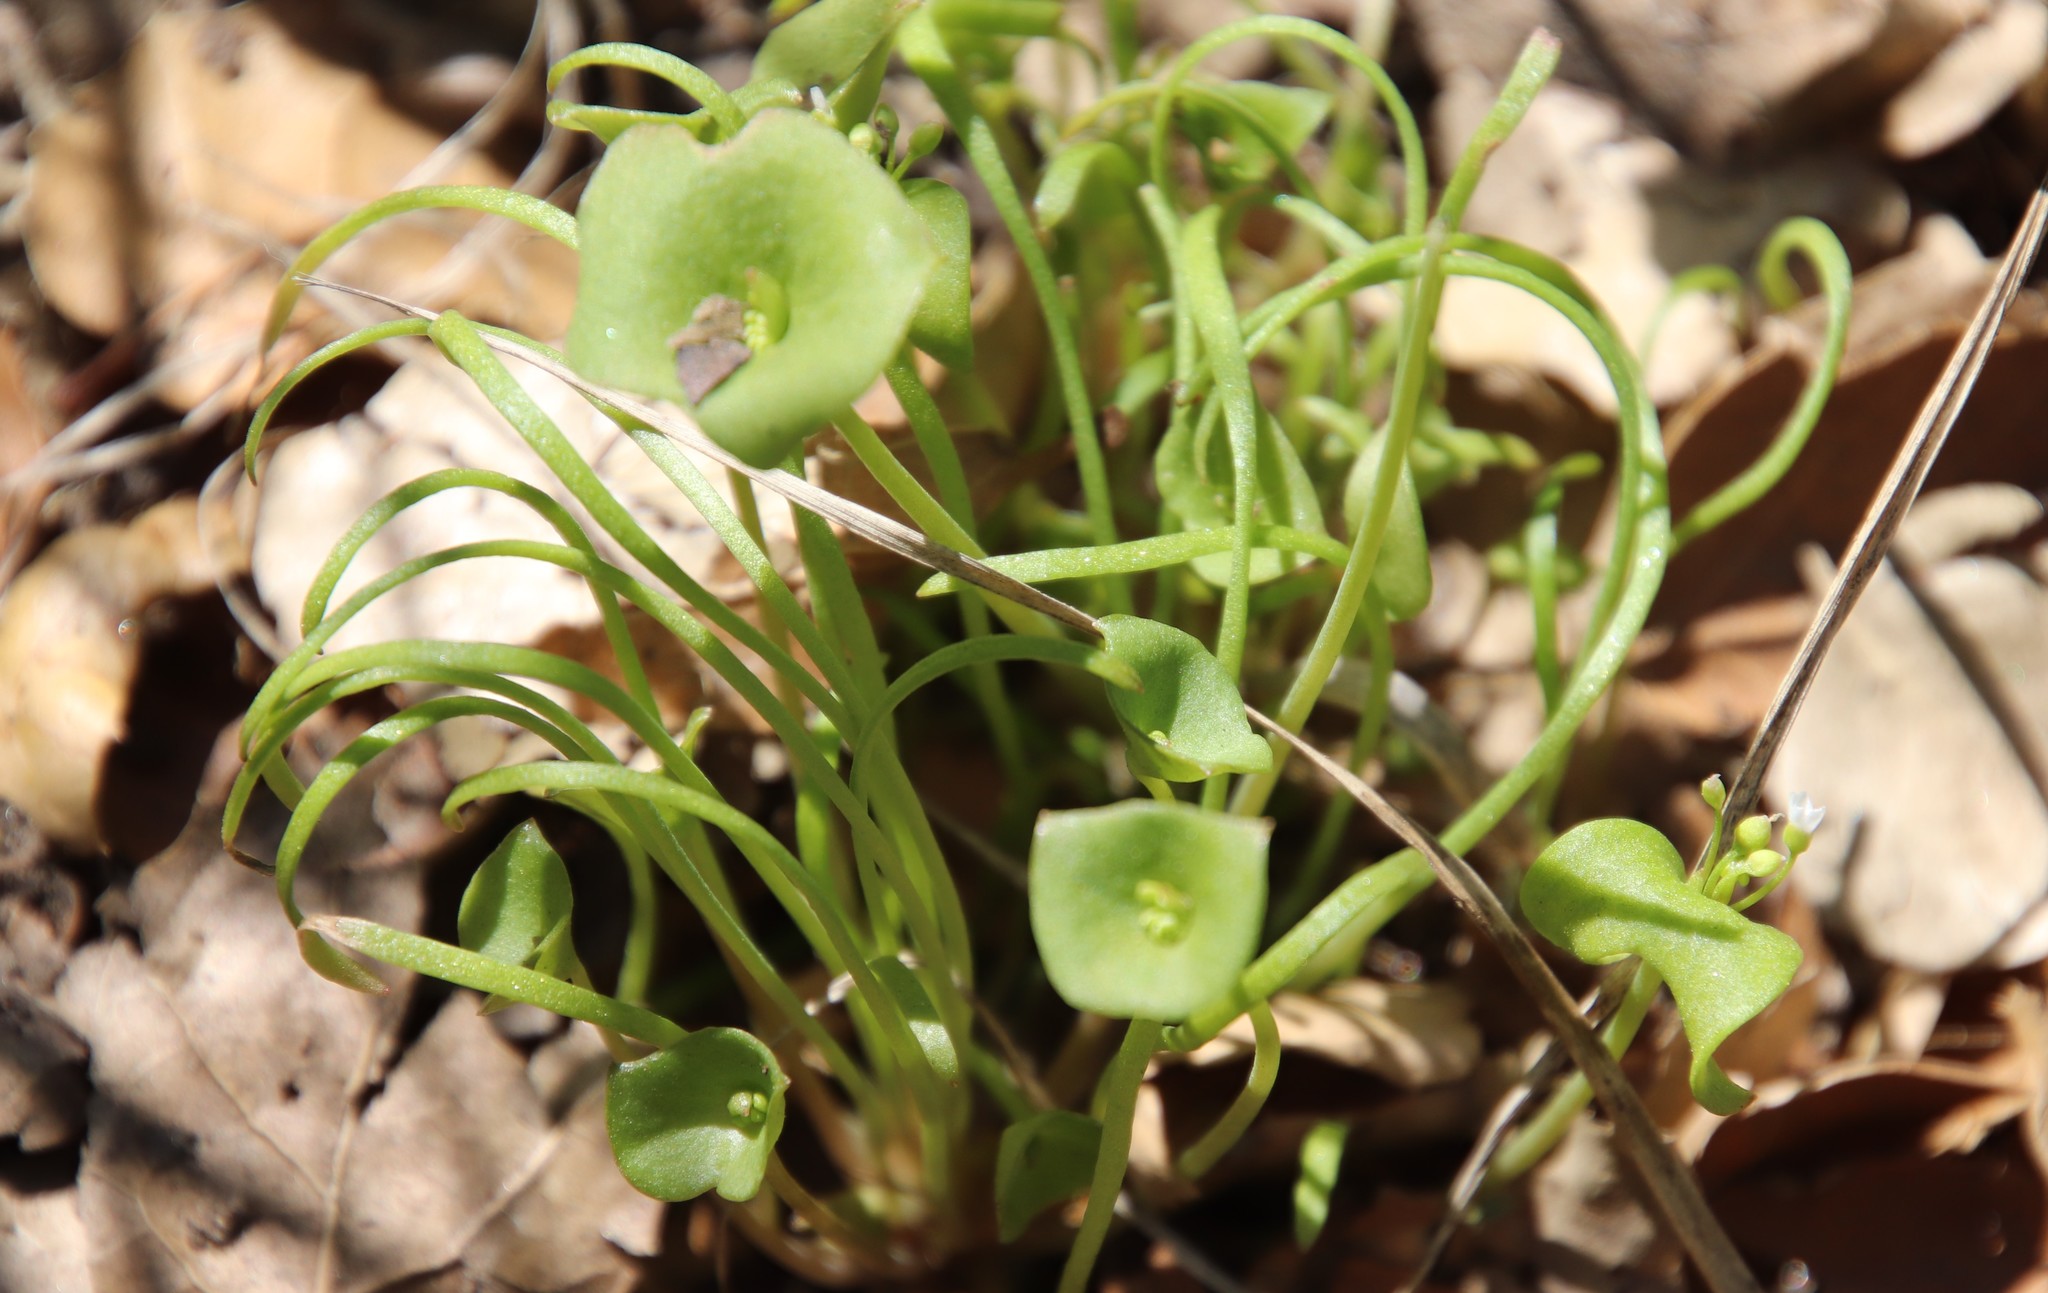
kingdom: Plantae
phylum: Tracheophyta
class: Magnoliopsida
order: Caryophyllales
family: Montiaceae
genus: Claytonia
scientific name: Claytonia parviflora
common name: Indian-lettuce
